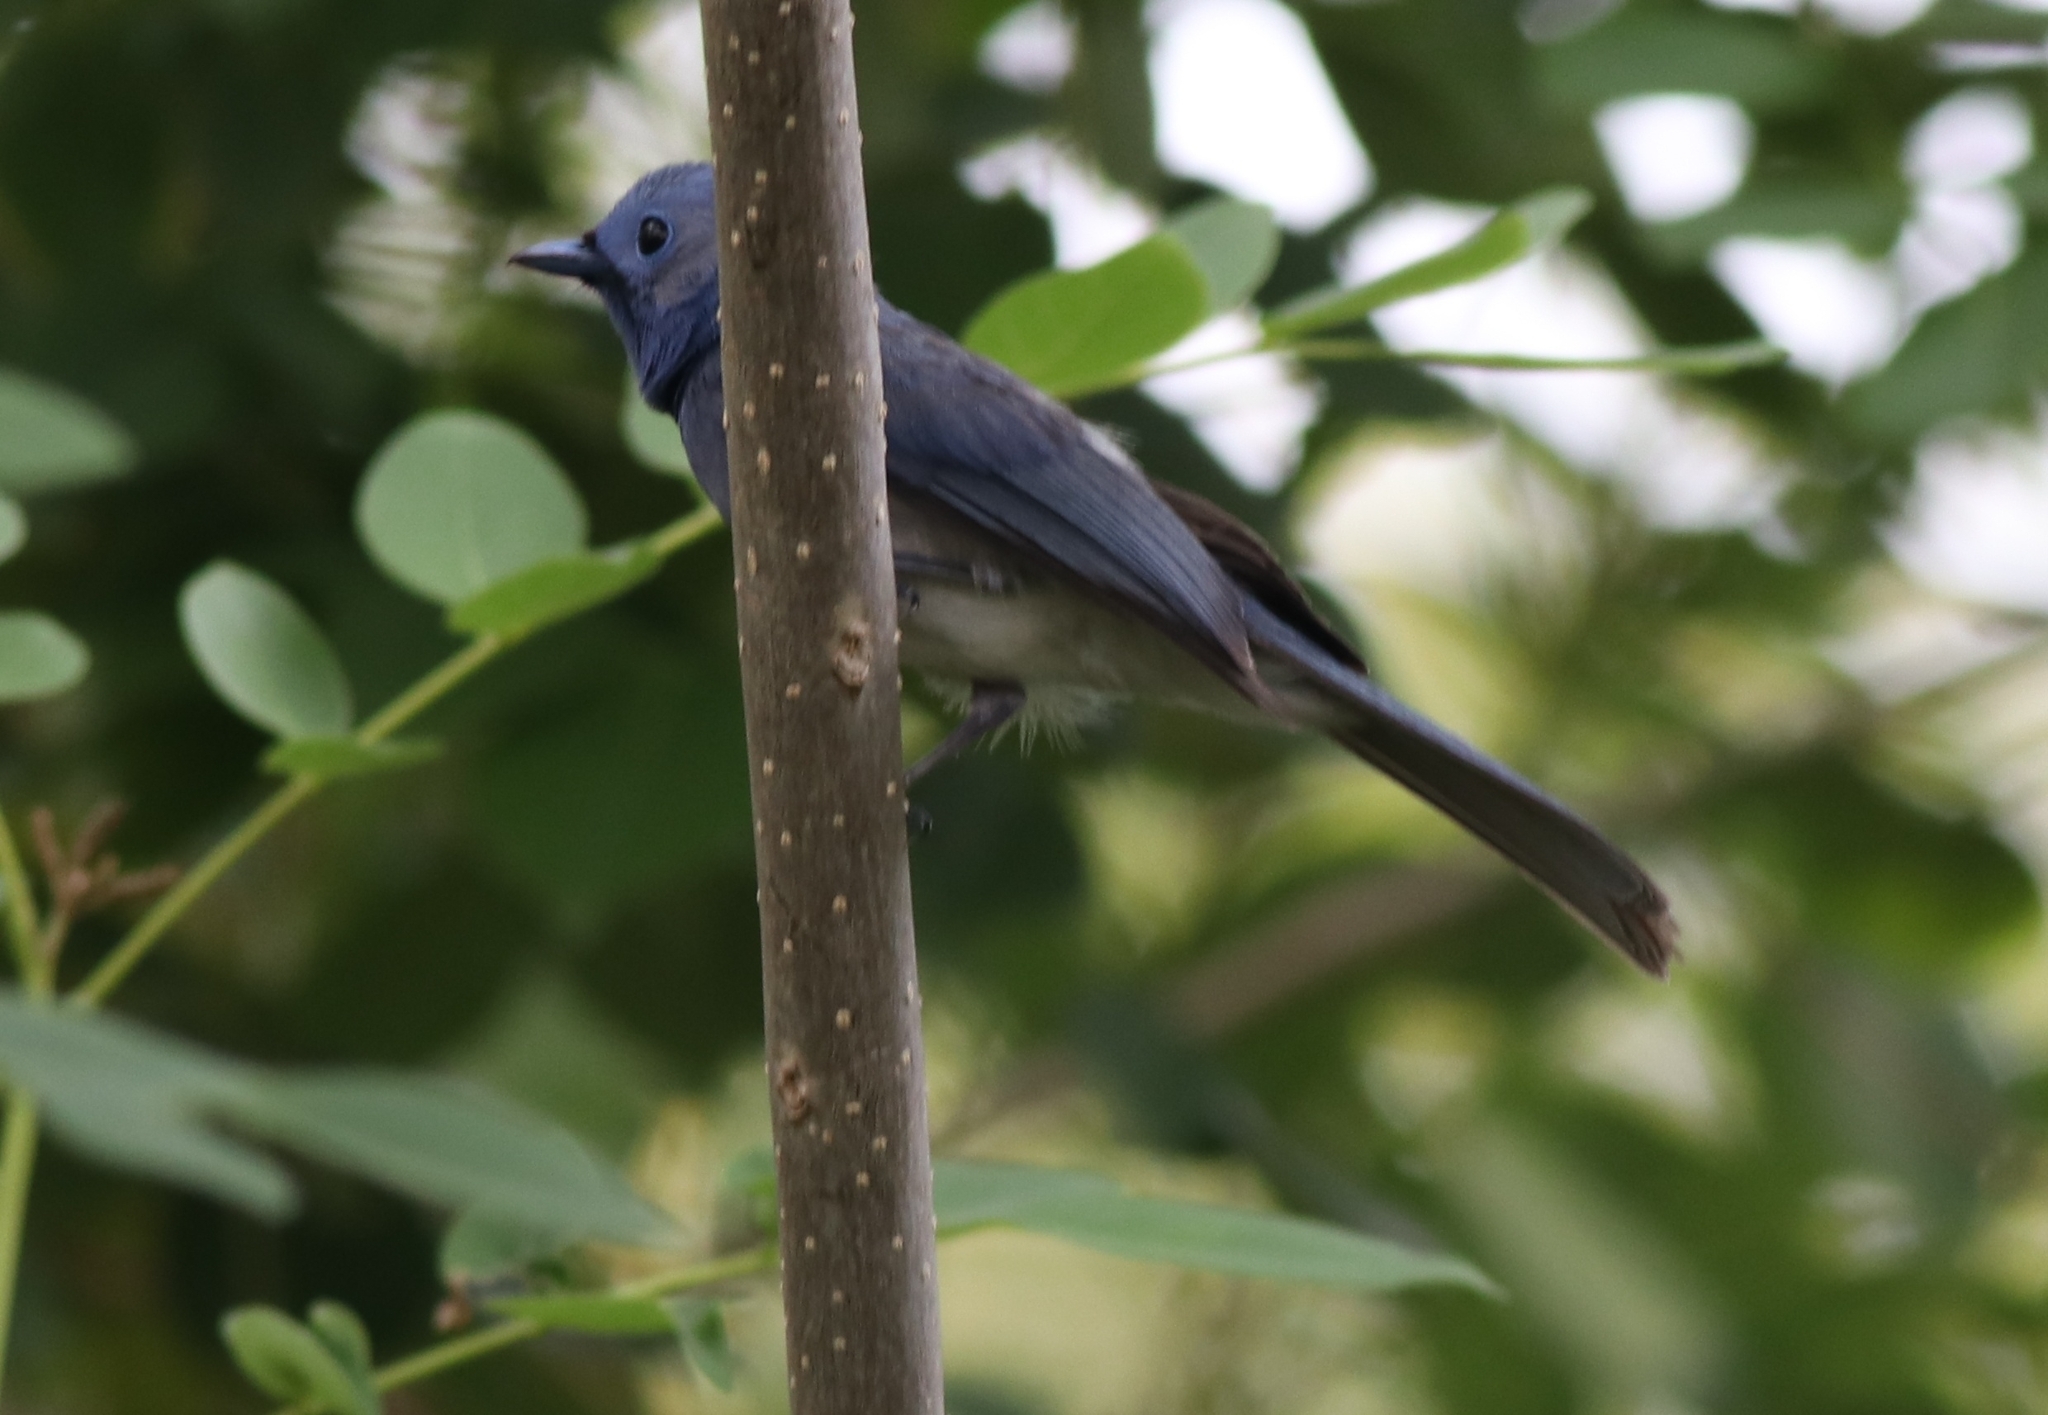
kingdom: Animalia
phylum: Chordata
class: Aves
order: Passeriformes
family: Monarchidae
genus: Hypothymis
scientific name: Hypothymis azurea
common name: Black-naped monarch
